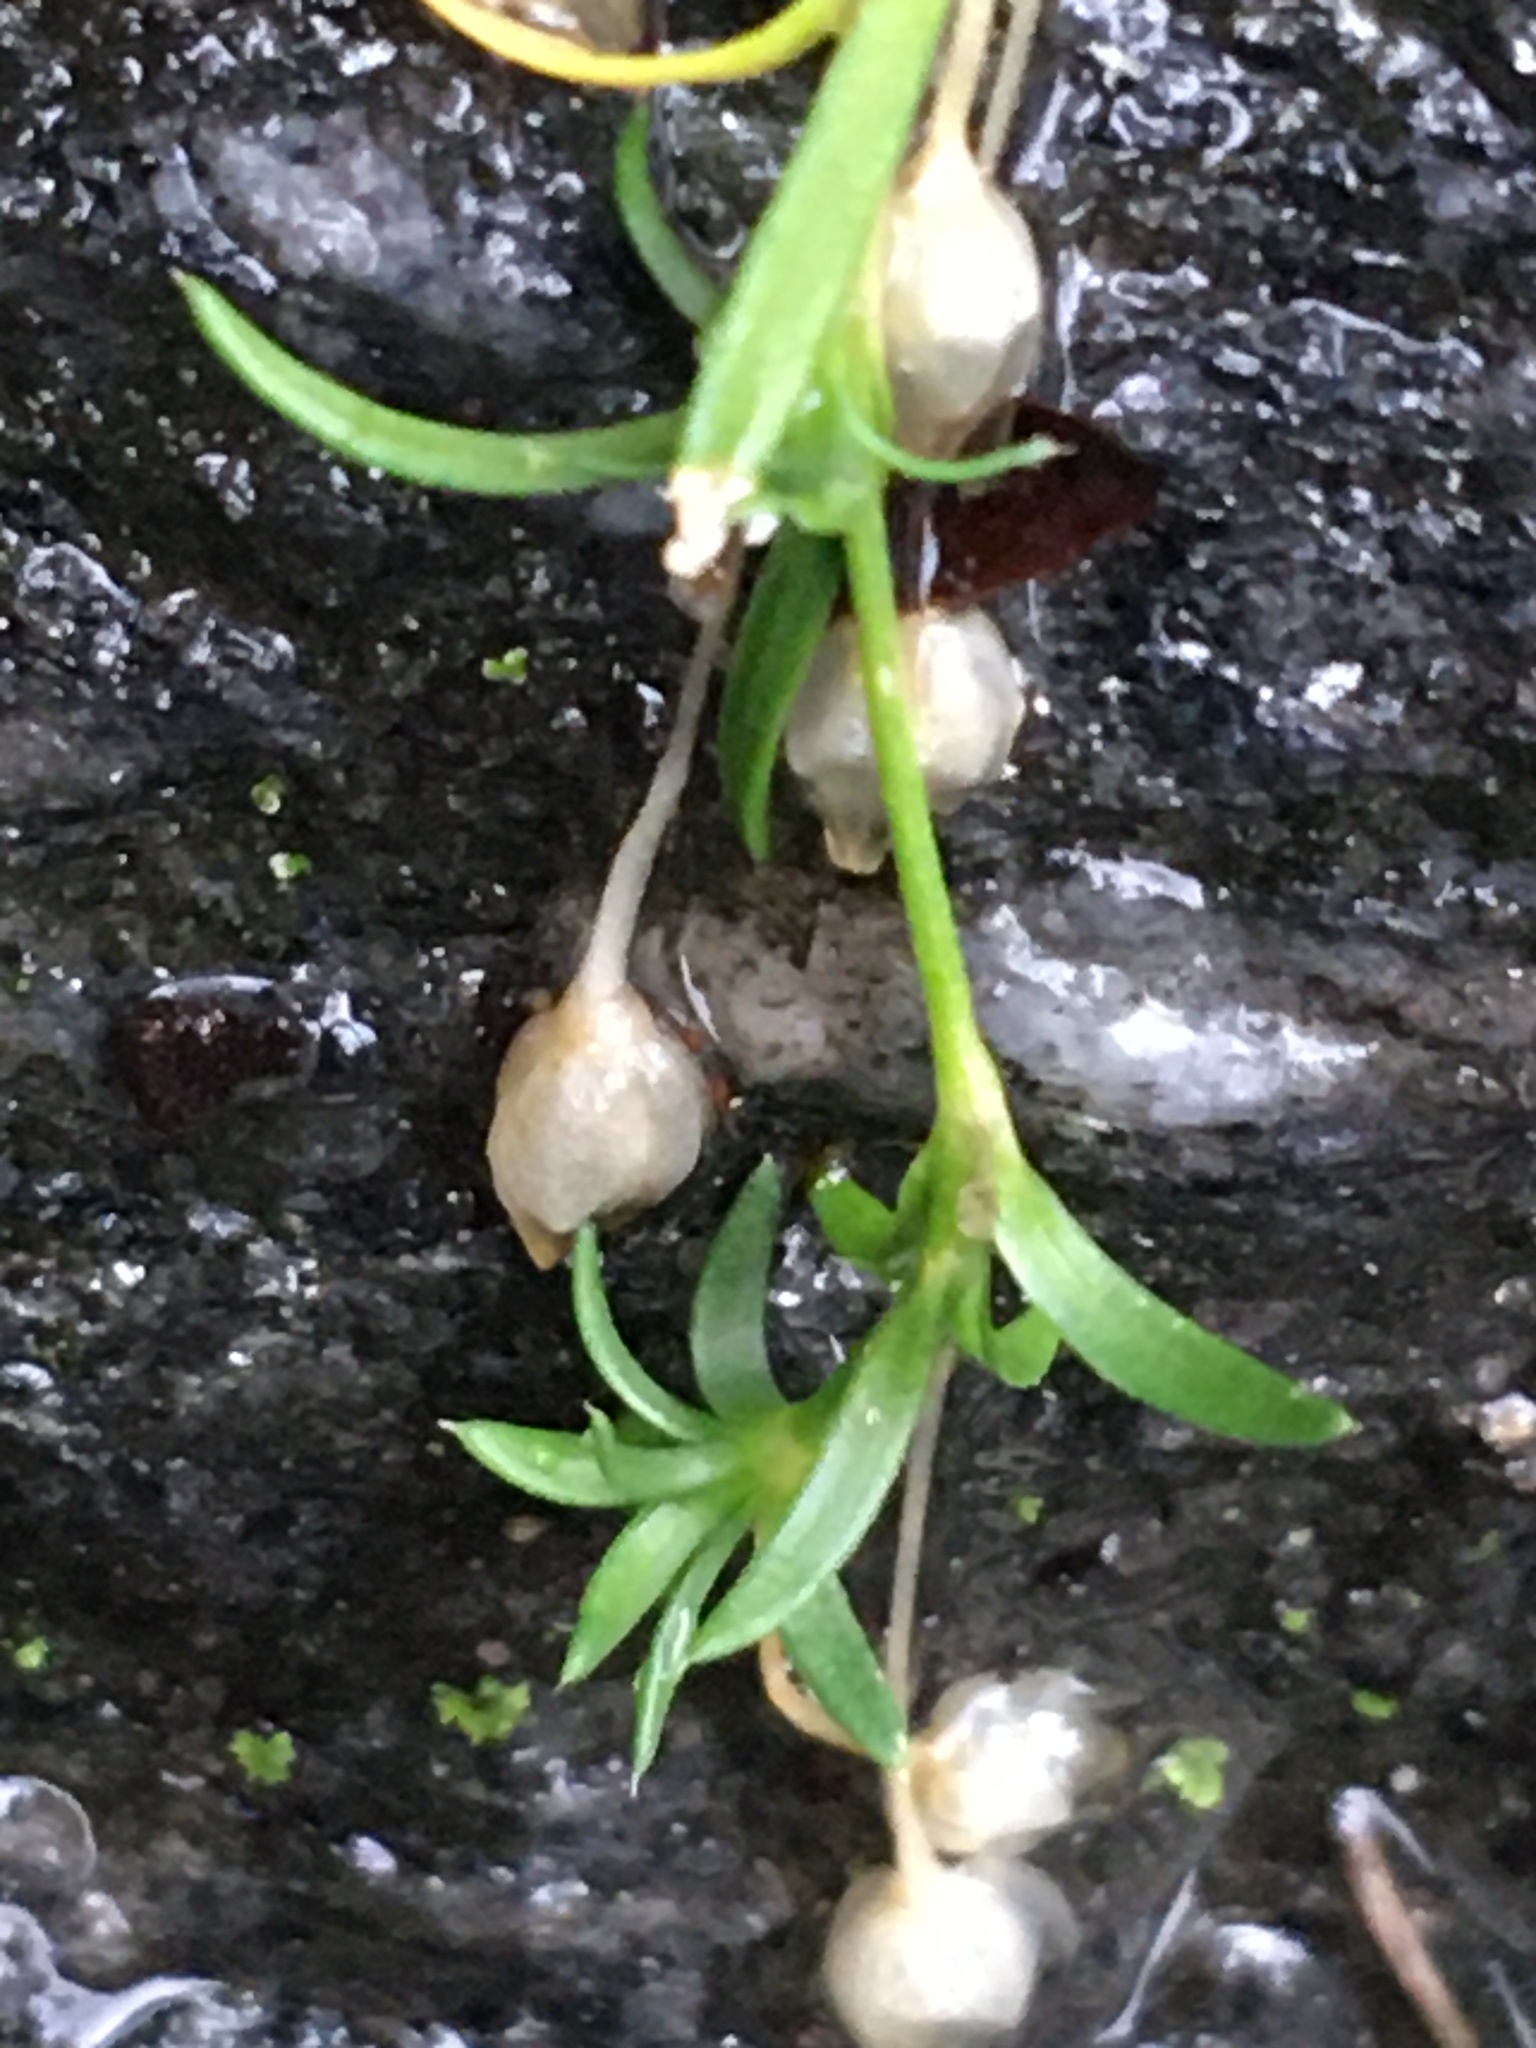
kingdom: Plantae
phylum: Tracheophyta
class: Magnoliopsida
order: Caryophyllales
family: Caryophyllaceae
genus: Sagina
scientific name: Sagina procumbens
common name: Procumbent pearlwort
